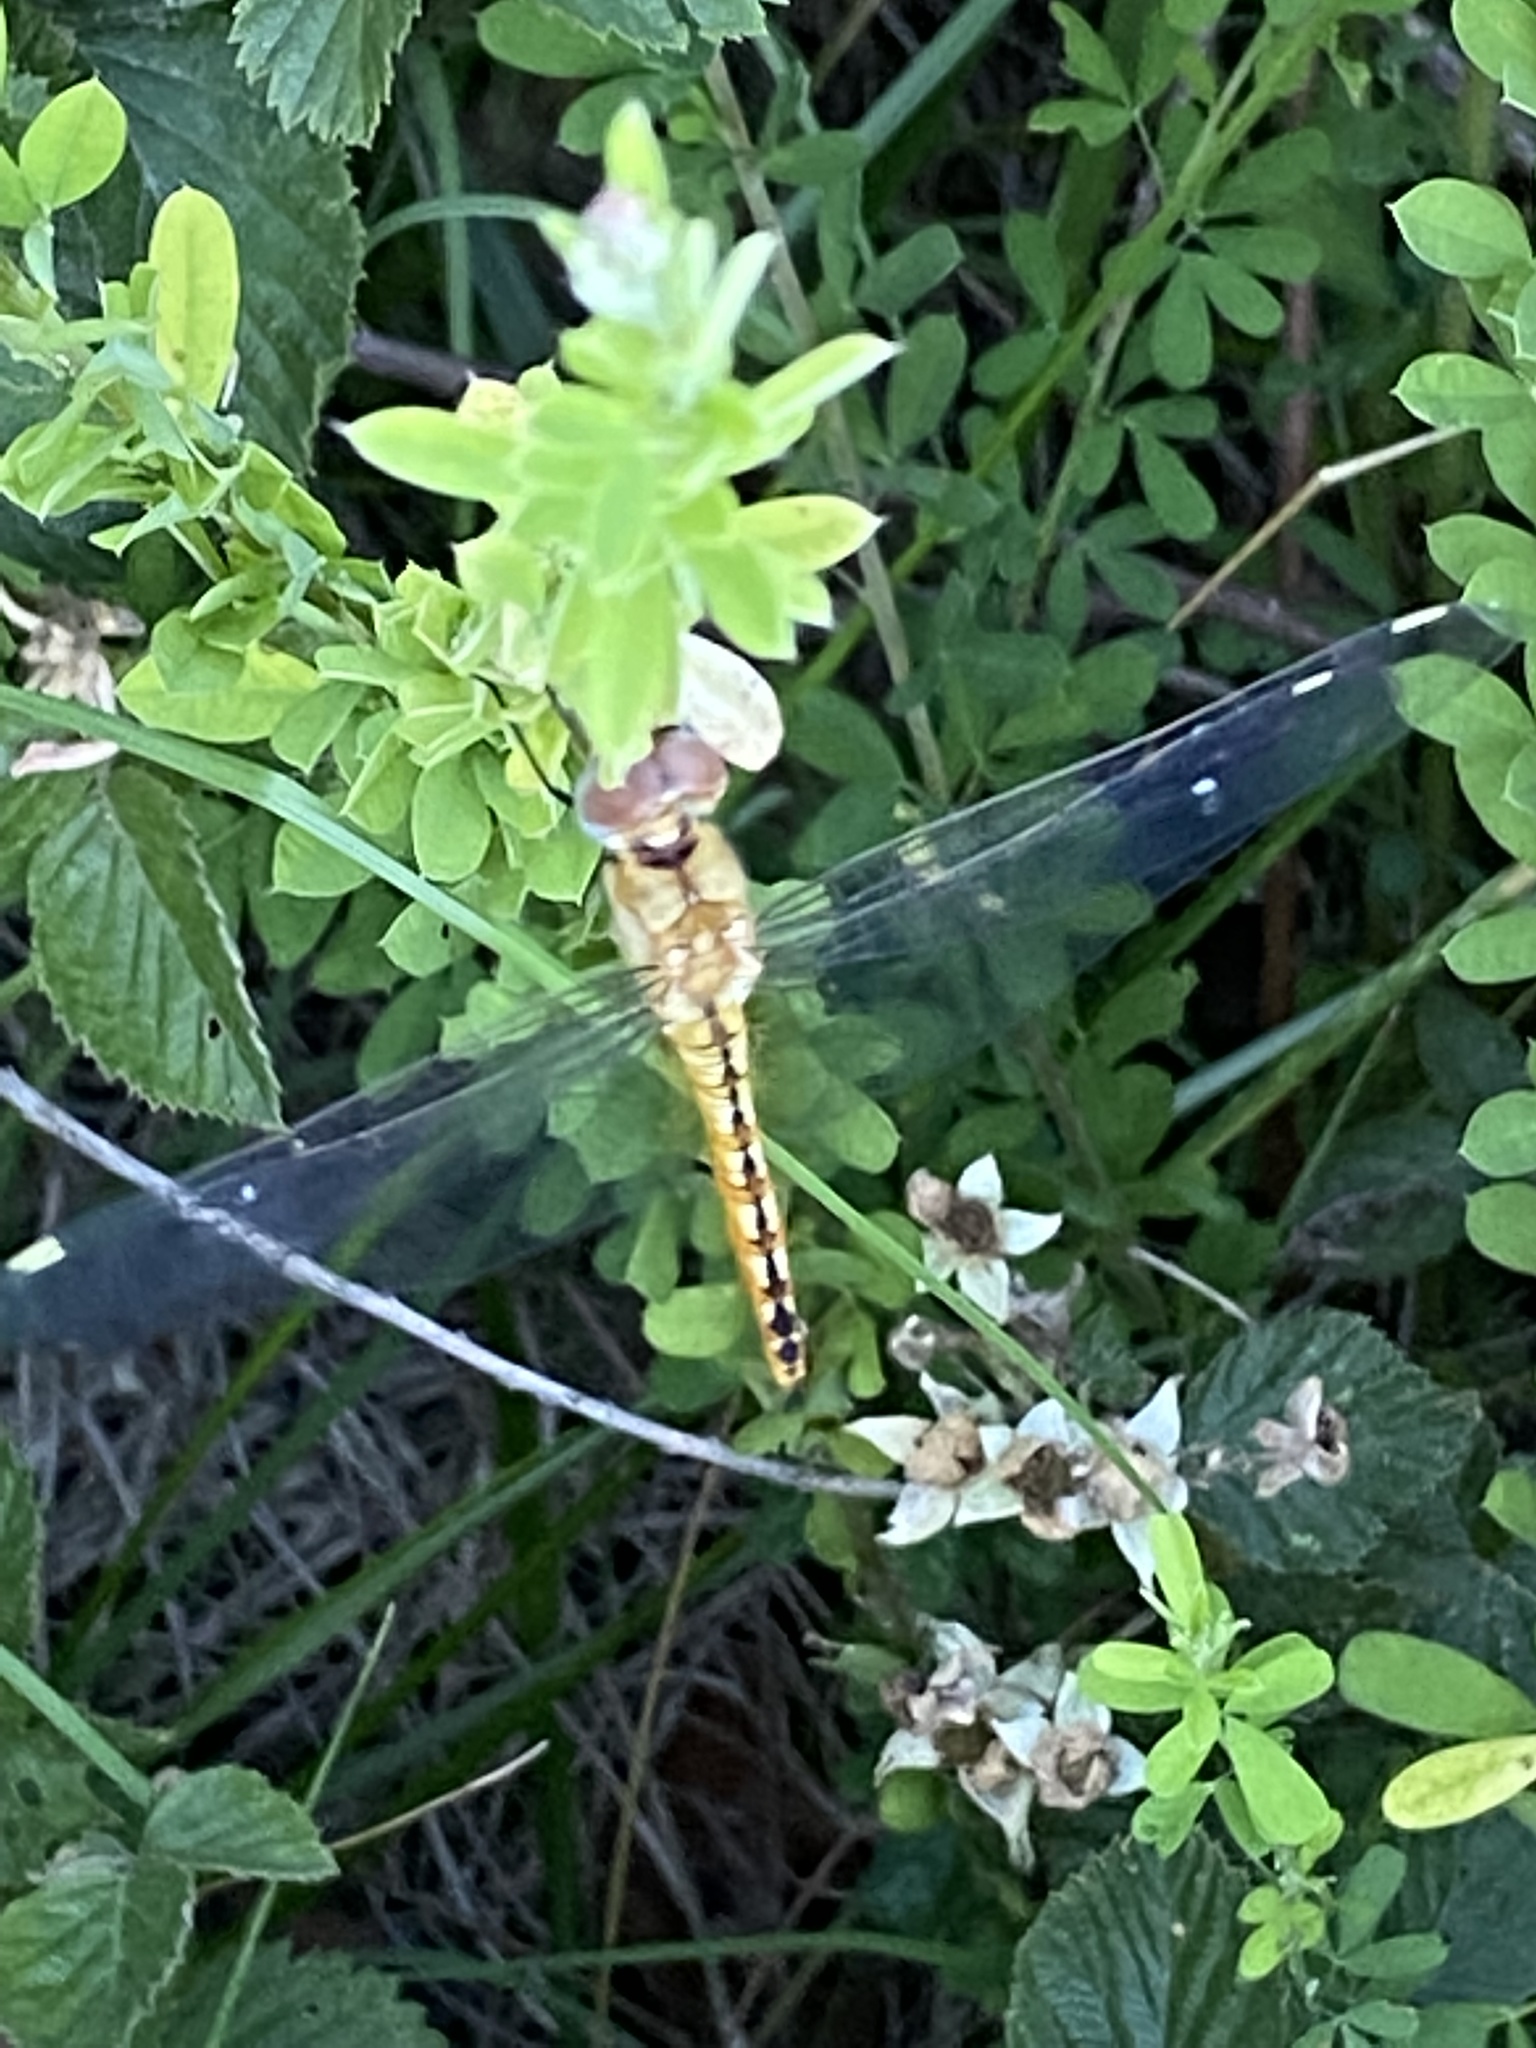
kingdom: Animalia
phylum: Arthropoda
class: Insecta
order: Odonata
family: Libellulidae
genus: Pantala
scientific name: Pantala flavescens
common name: Wandering glider
